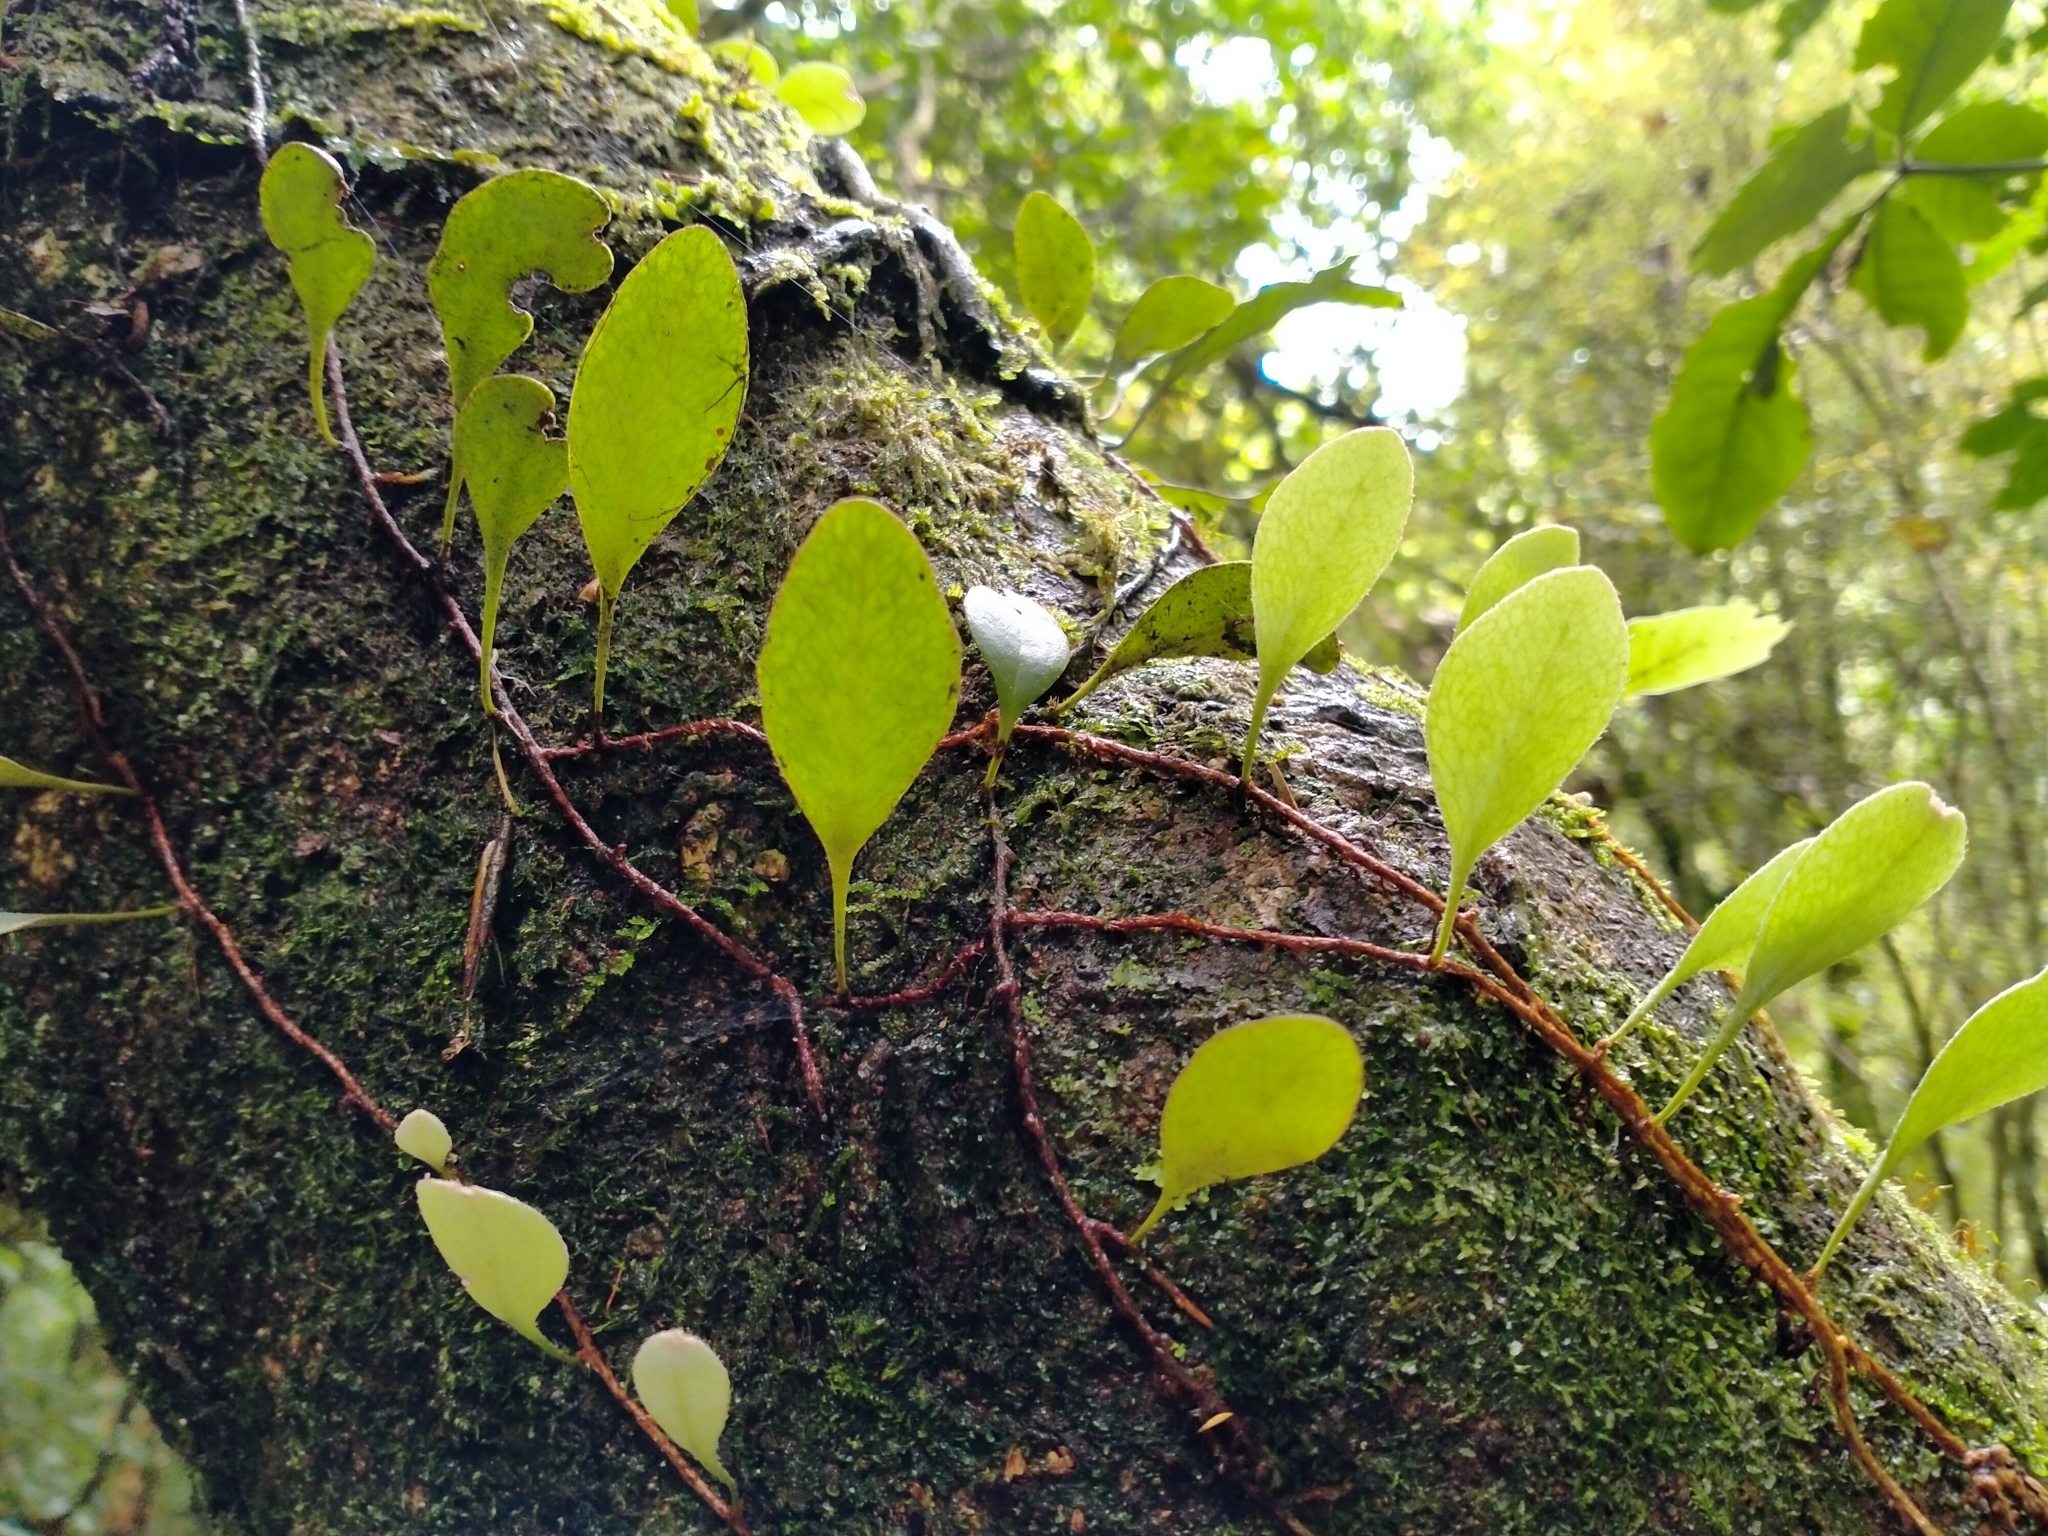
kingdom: Plantae
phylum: Tracheophyta
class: Polypodiopsida
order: Polypodiales
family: Polypodiaceae
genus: Pyrrosia
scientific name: Pyrrosia eleagnifolia
